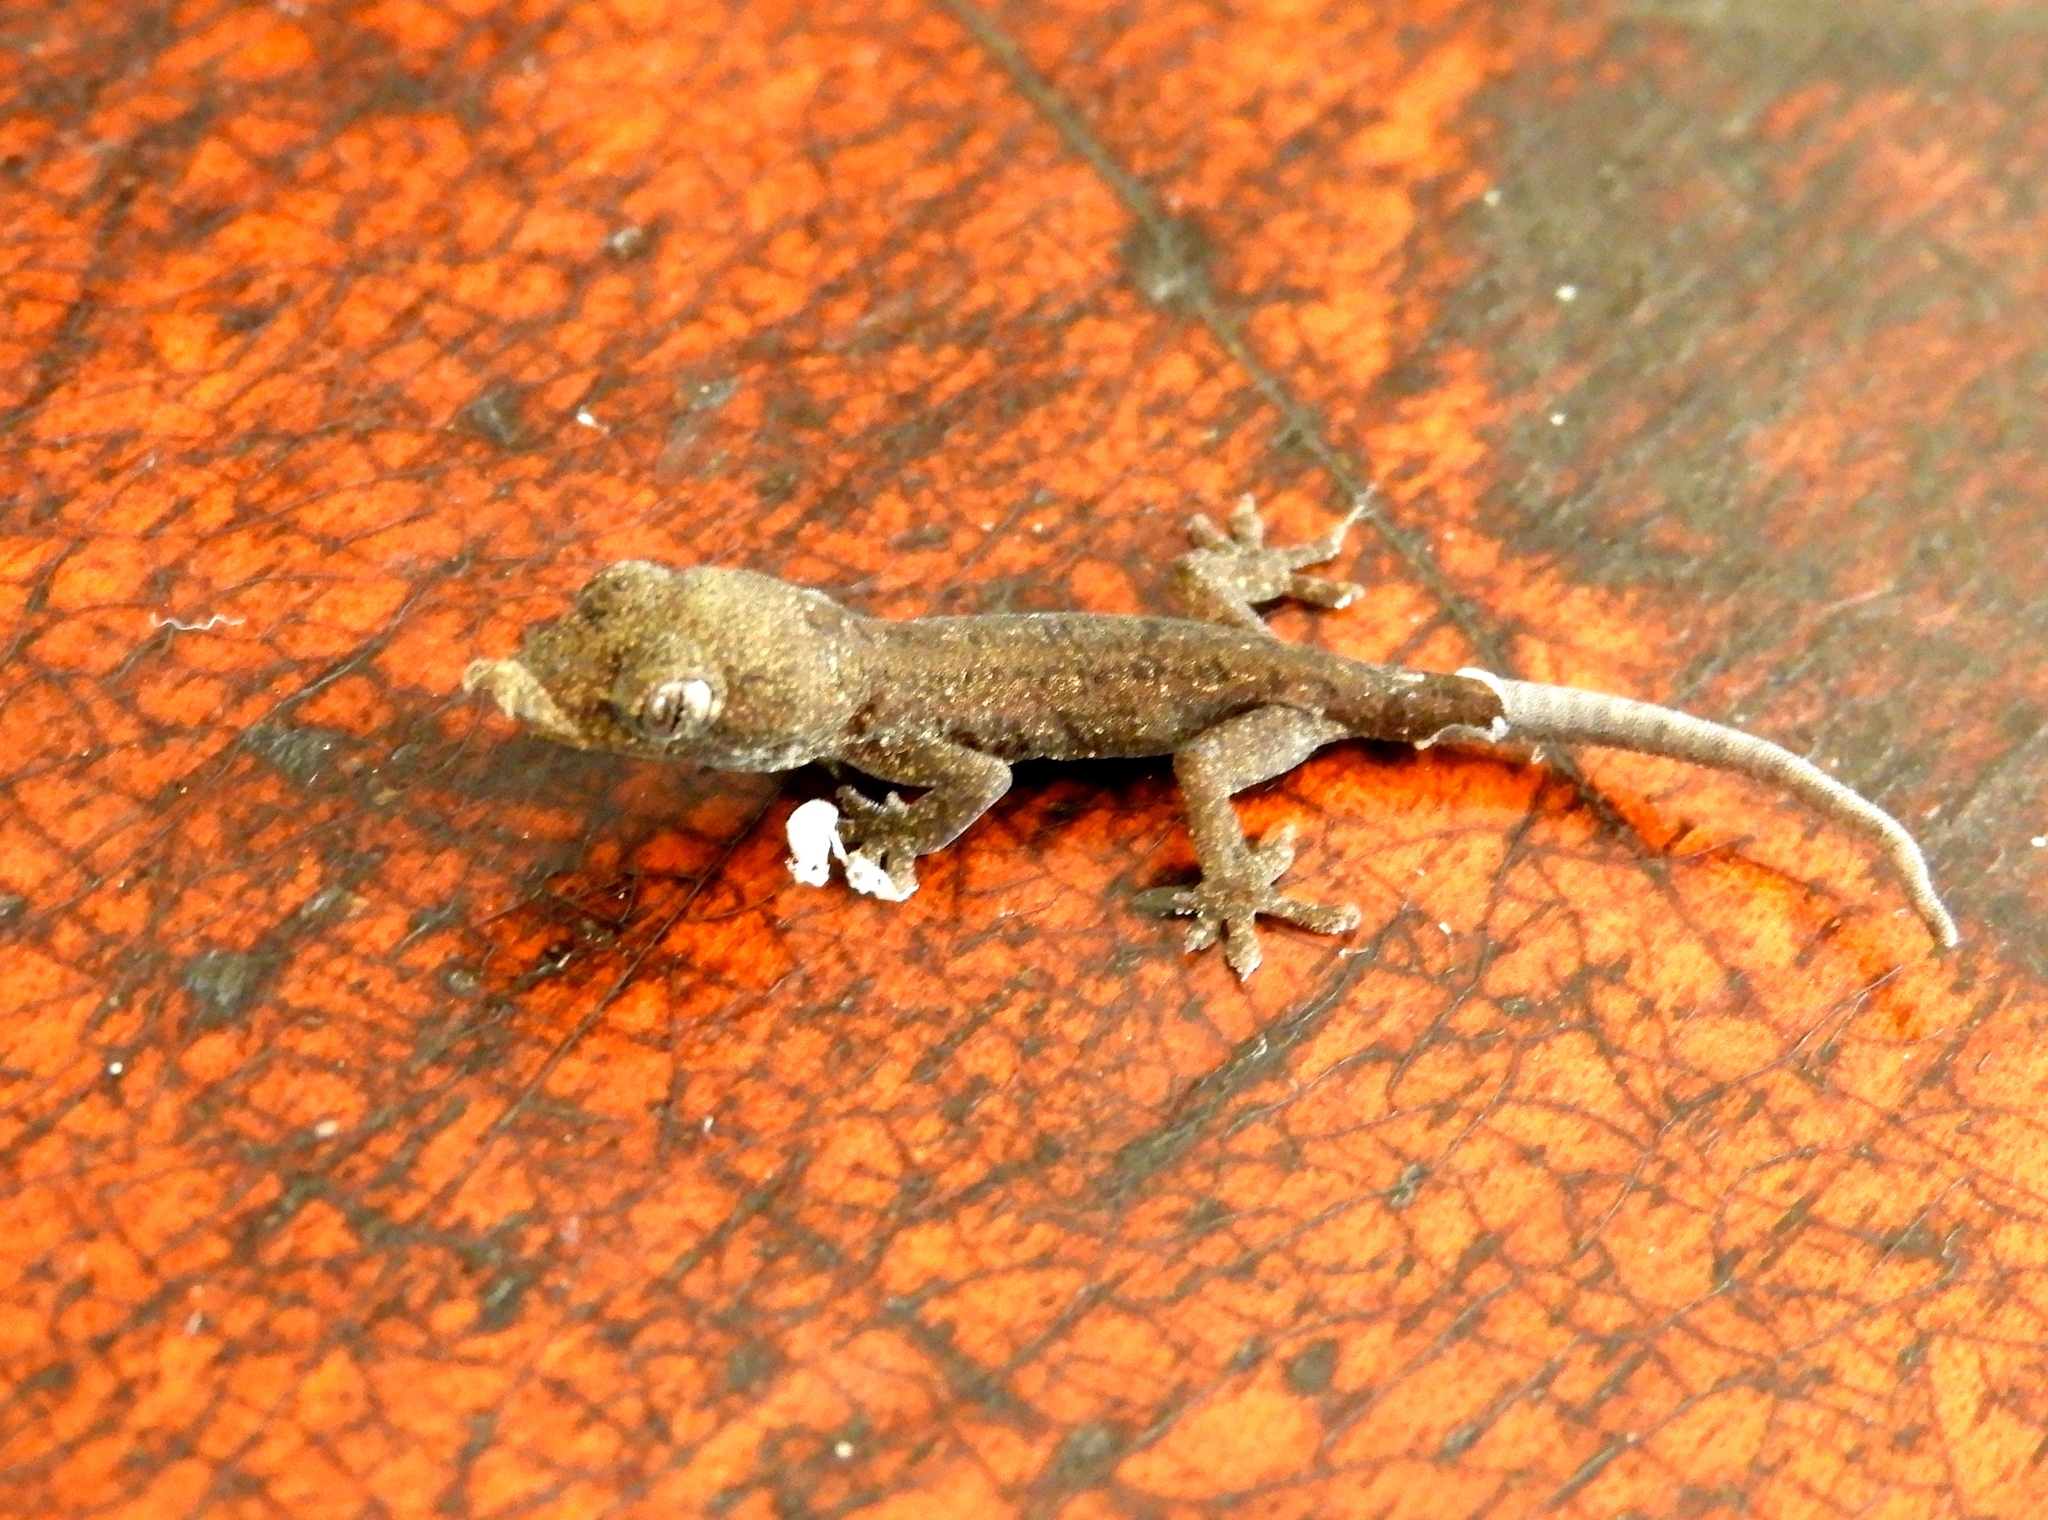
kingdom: Animalia
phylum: Chordata
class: Squamata
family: Gekkonidae
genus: Hemidactylus
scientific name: Hemidactylus frenatus
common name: Common house gecko
